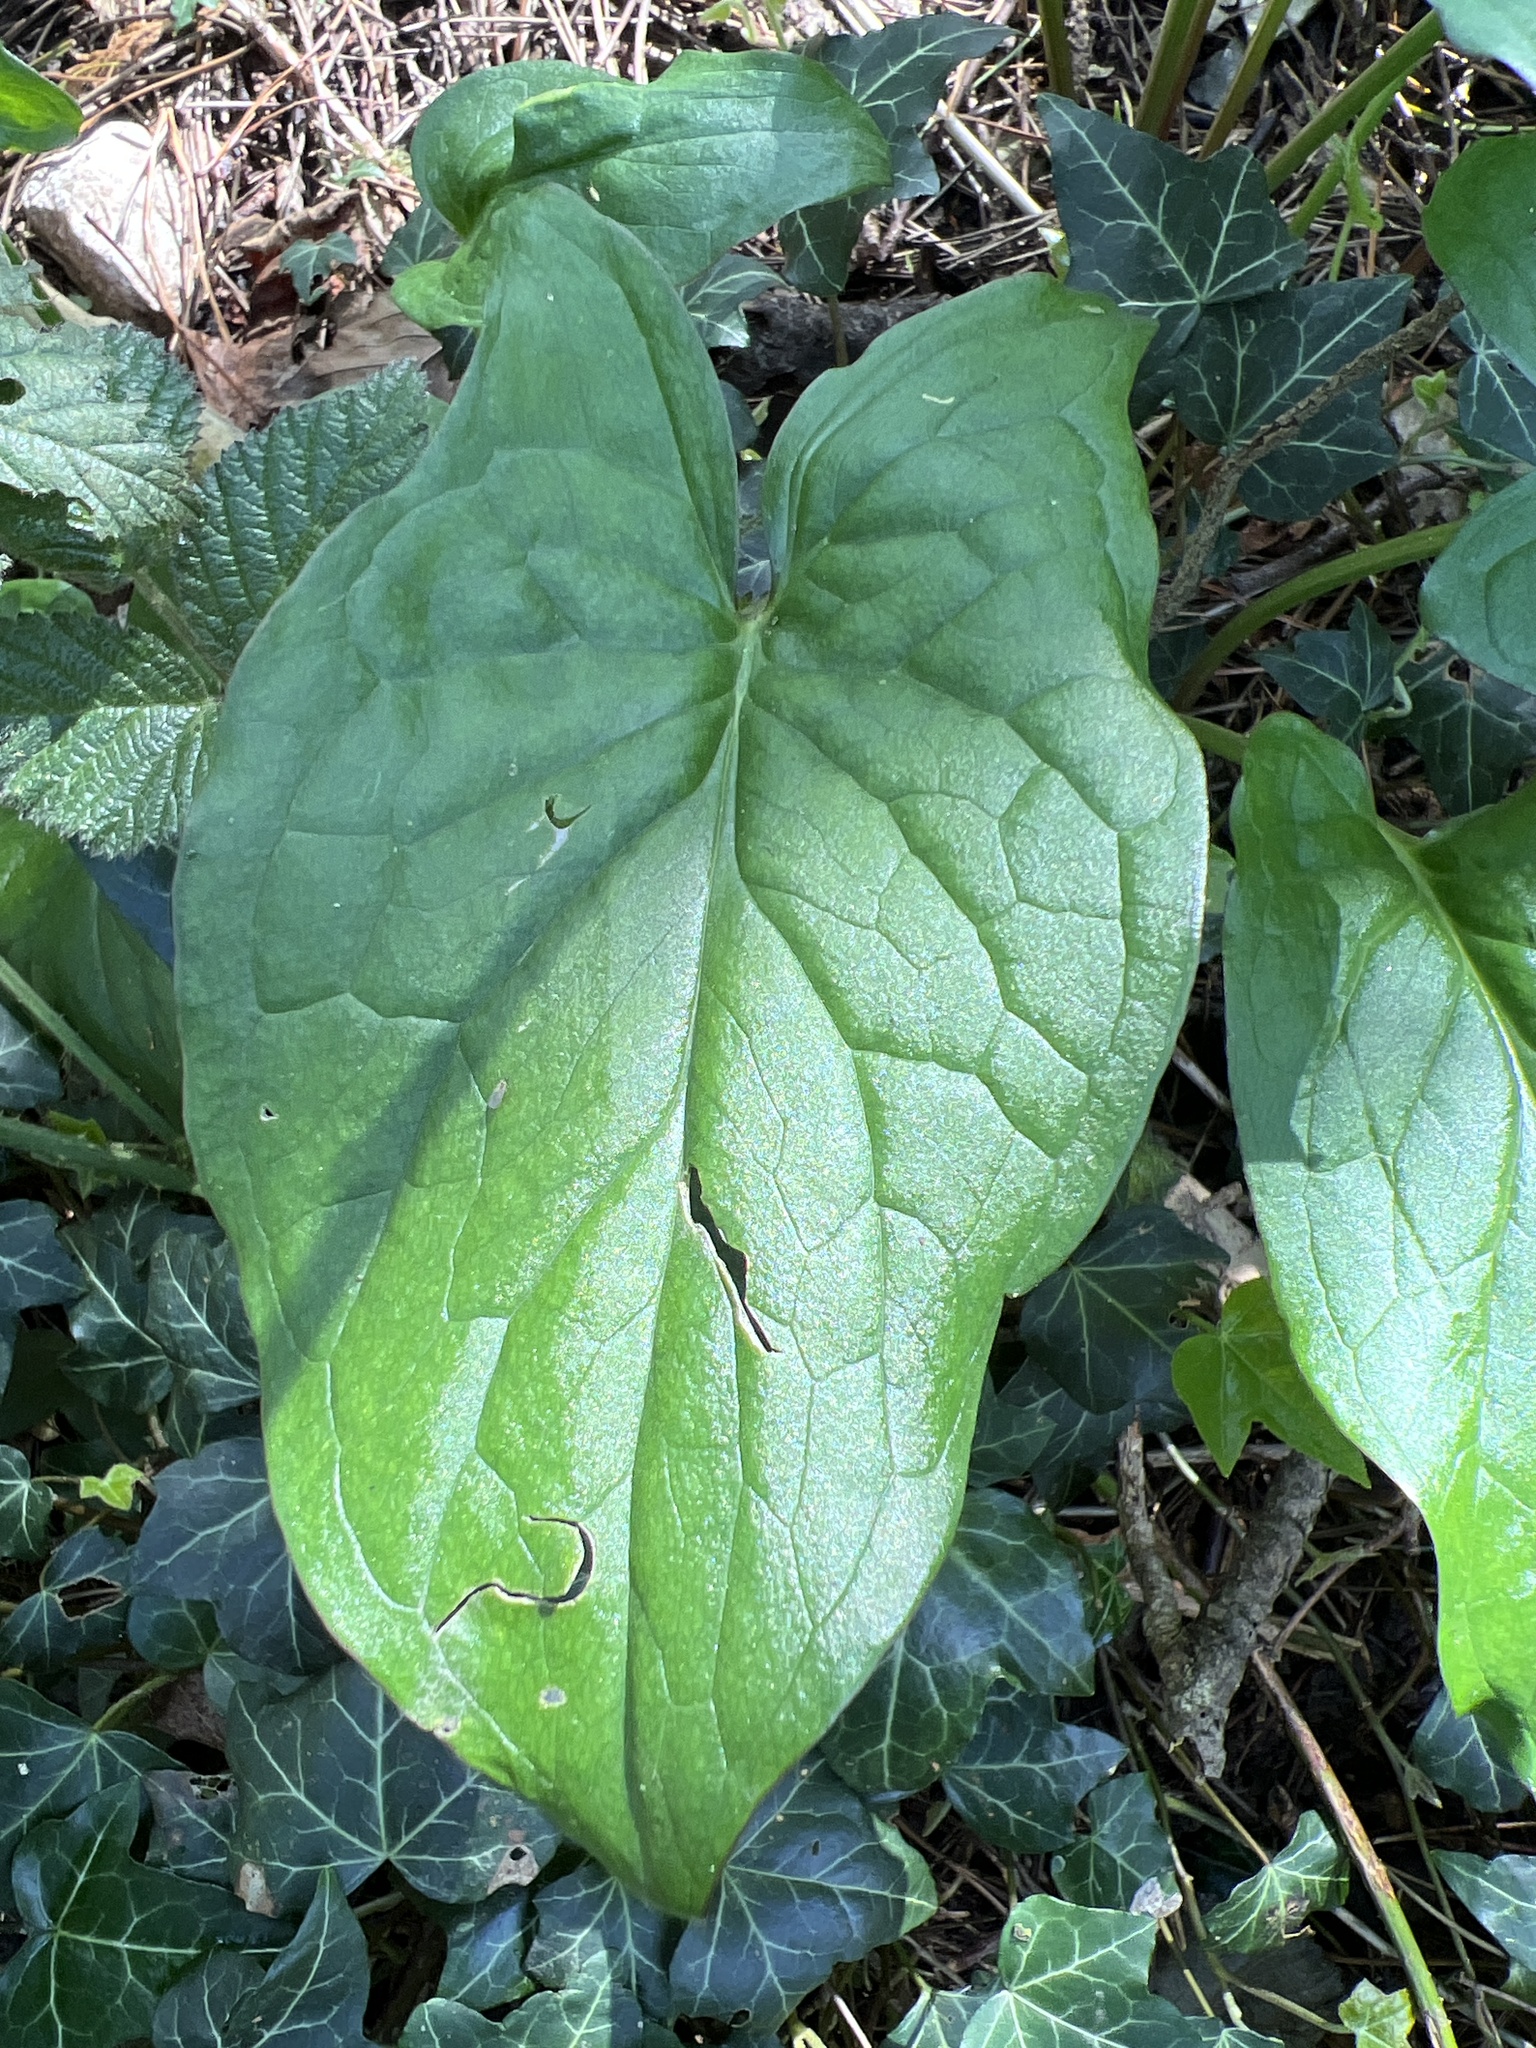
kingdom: Plantae
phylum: Tracheophyta
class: Liliopsida
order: Alismatales
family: Araceae
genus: Arum
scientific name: Arum maculatum
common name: Lords-and-ladies
